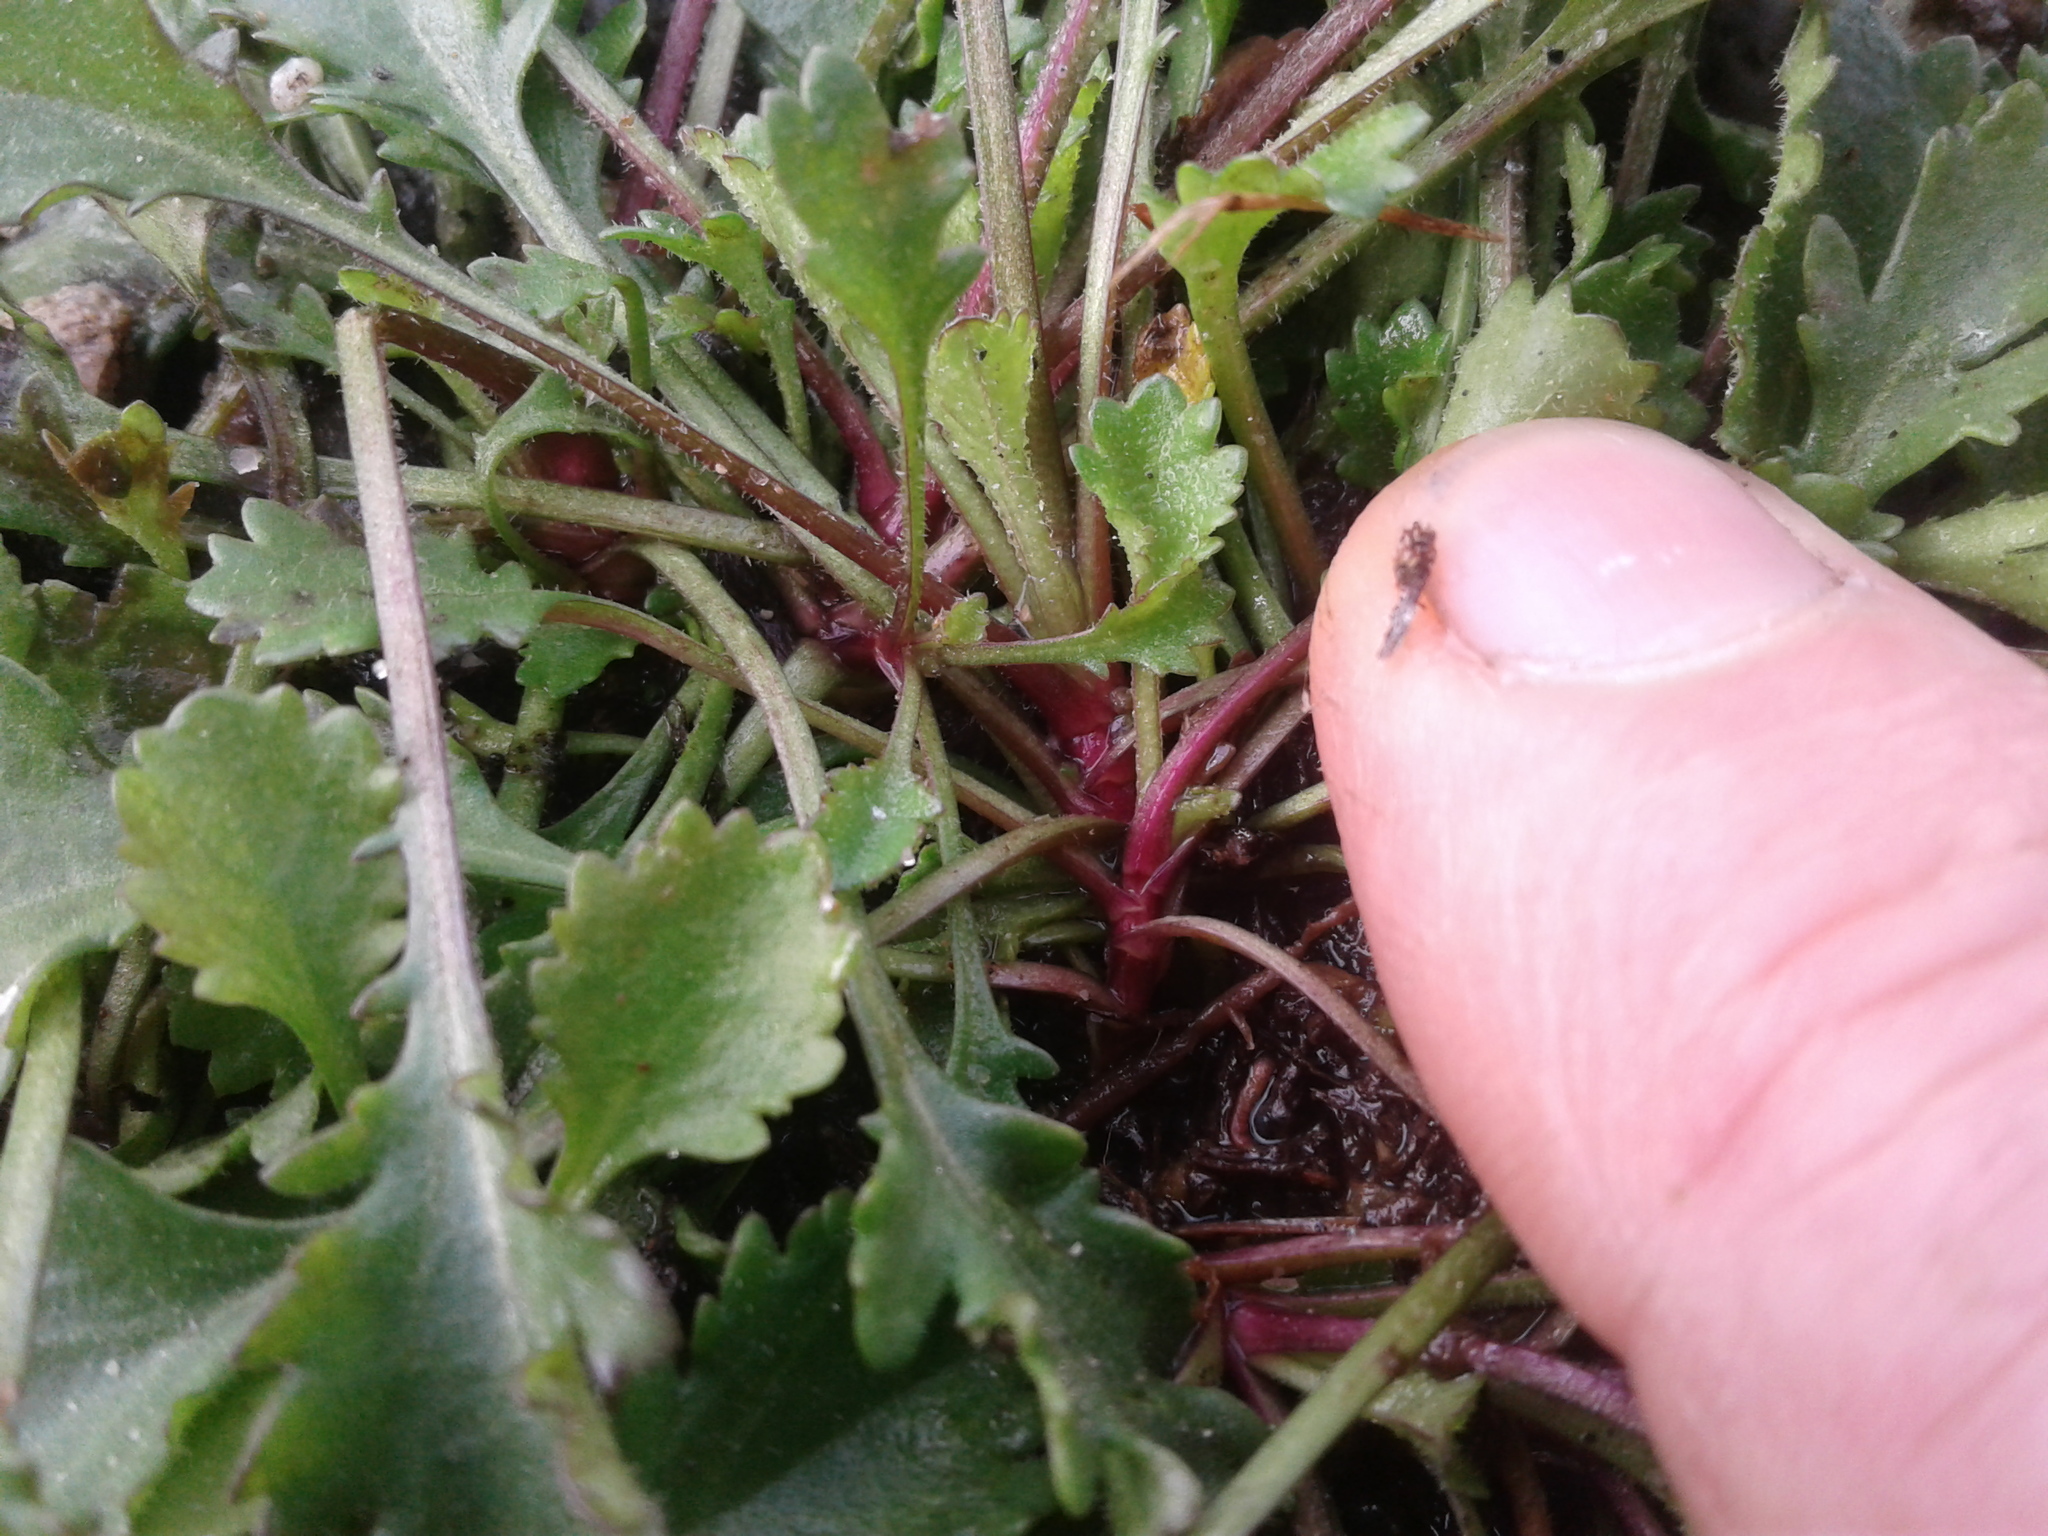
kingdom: Plantae
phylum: Tracheophyta
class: Magnoliopsida
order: Asterales
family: Asteraceae
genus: Leucanthemum
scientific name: Leucanthemum vulgare
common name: Oxeye daisy
